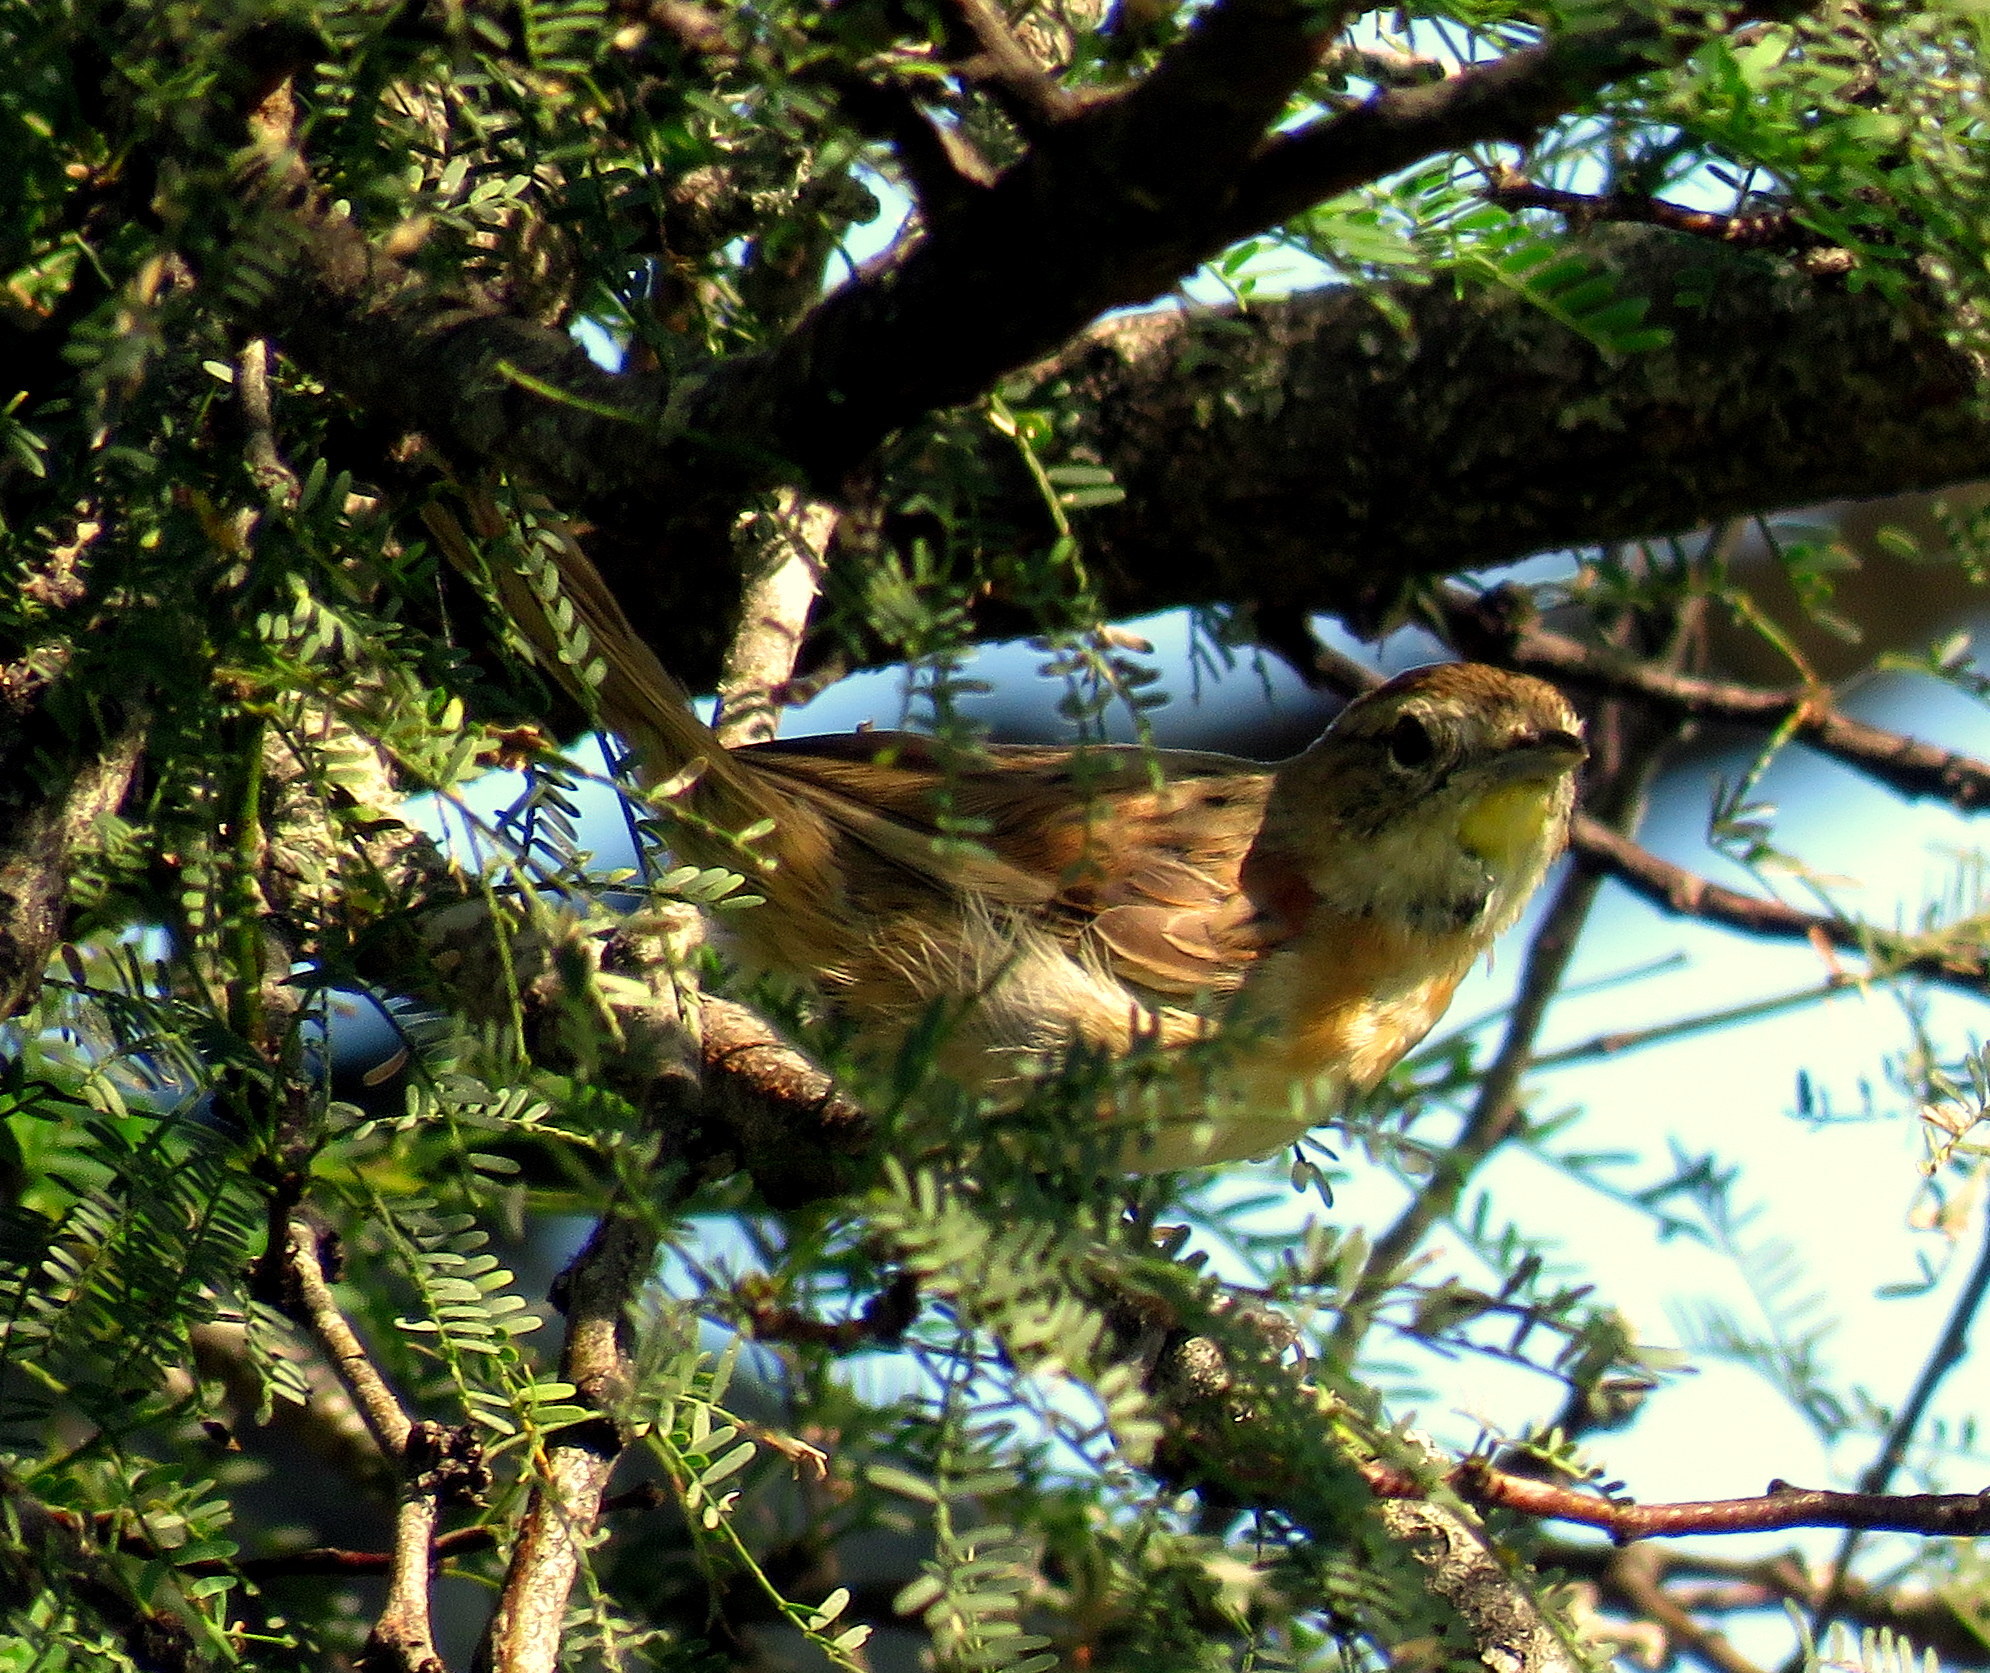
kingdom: Animalia
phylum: Chordata
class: Aves
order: Passeriformes
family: Furnariidae
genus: Schoeniophylax
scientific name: Schoeniophylax phryganophilus
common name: Chotoy spinetail
